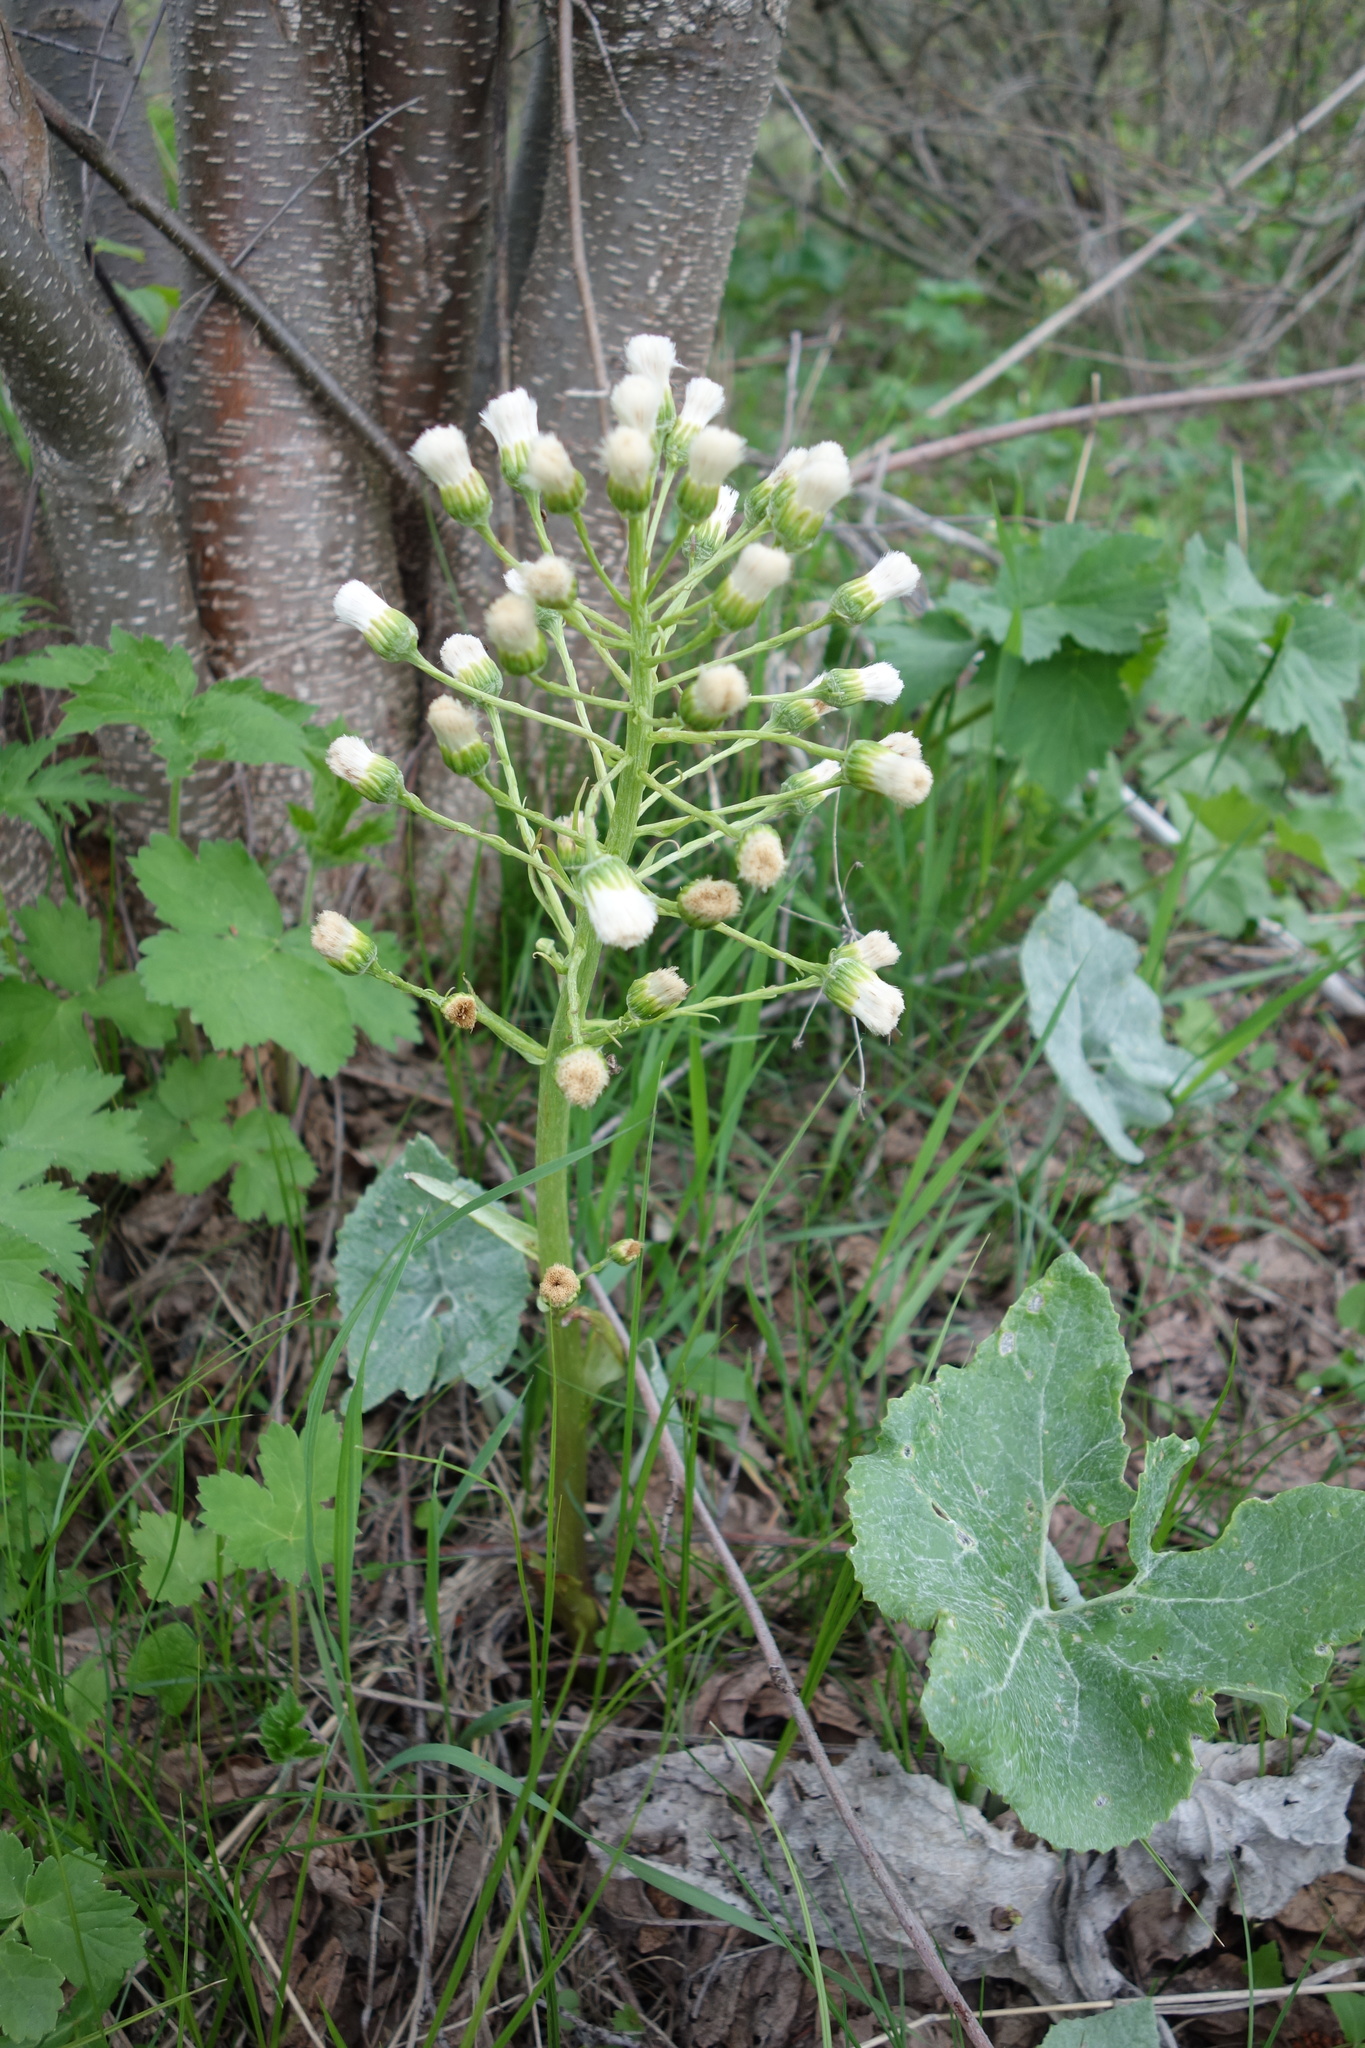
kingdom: Plantae
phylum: Tracheophyta
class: Magnoliopsida
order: Asterales
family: Asteraceae
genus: Petasites
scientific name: Petasites spurius
